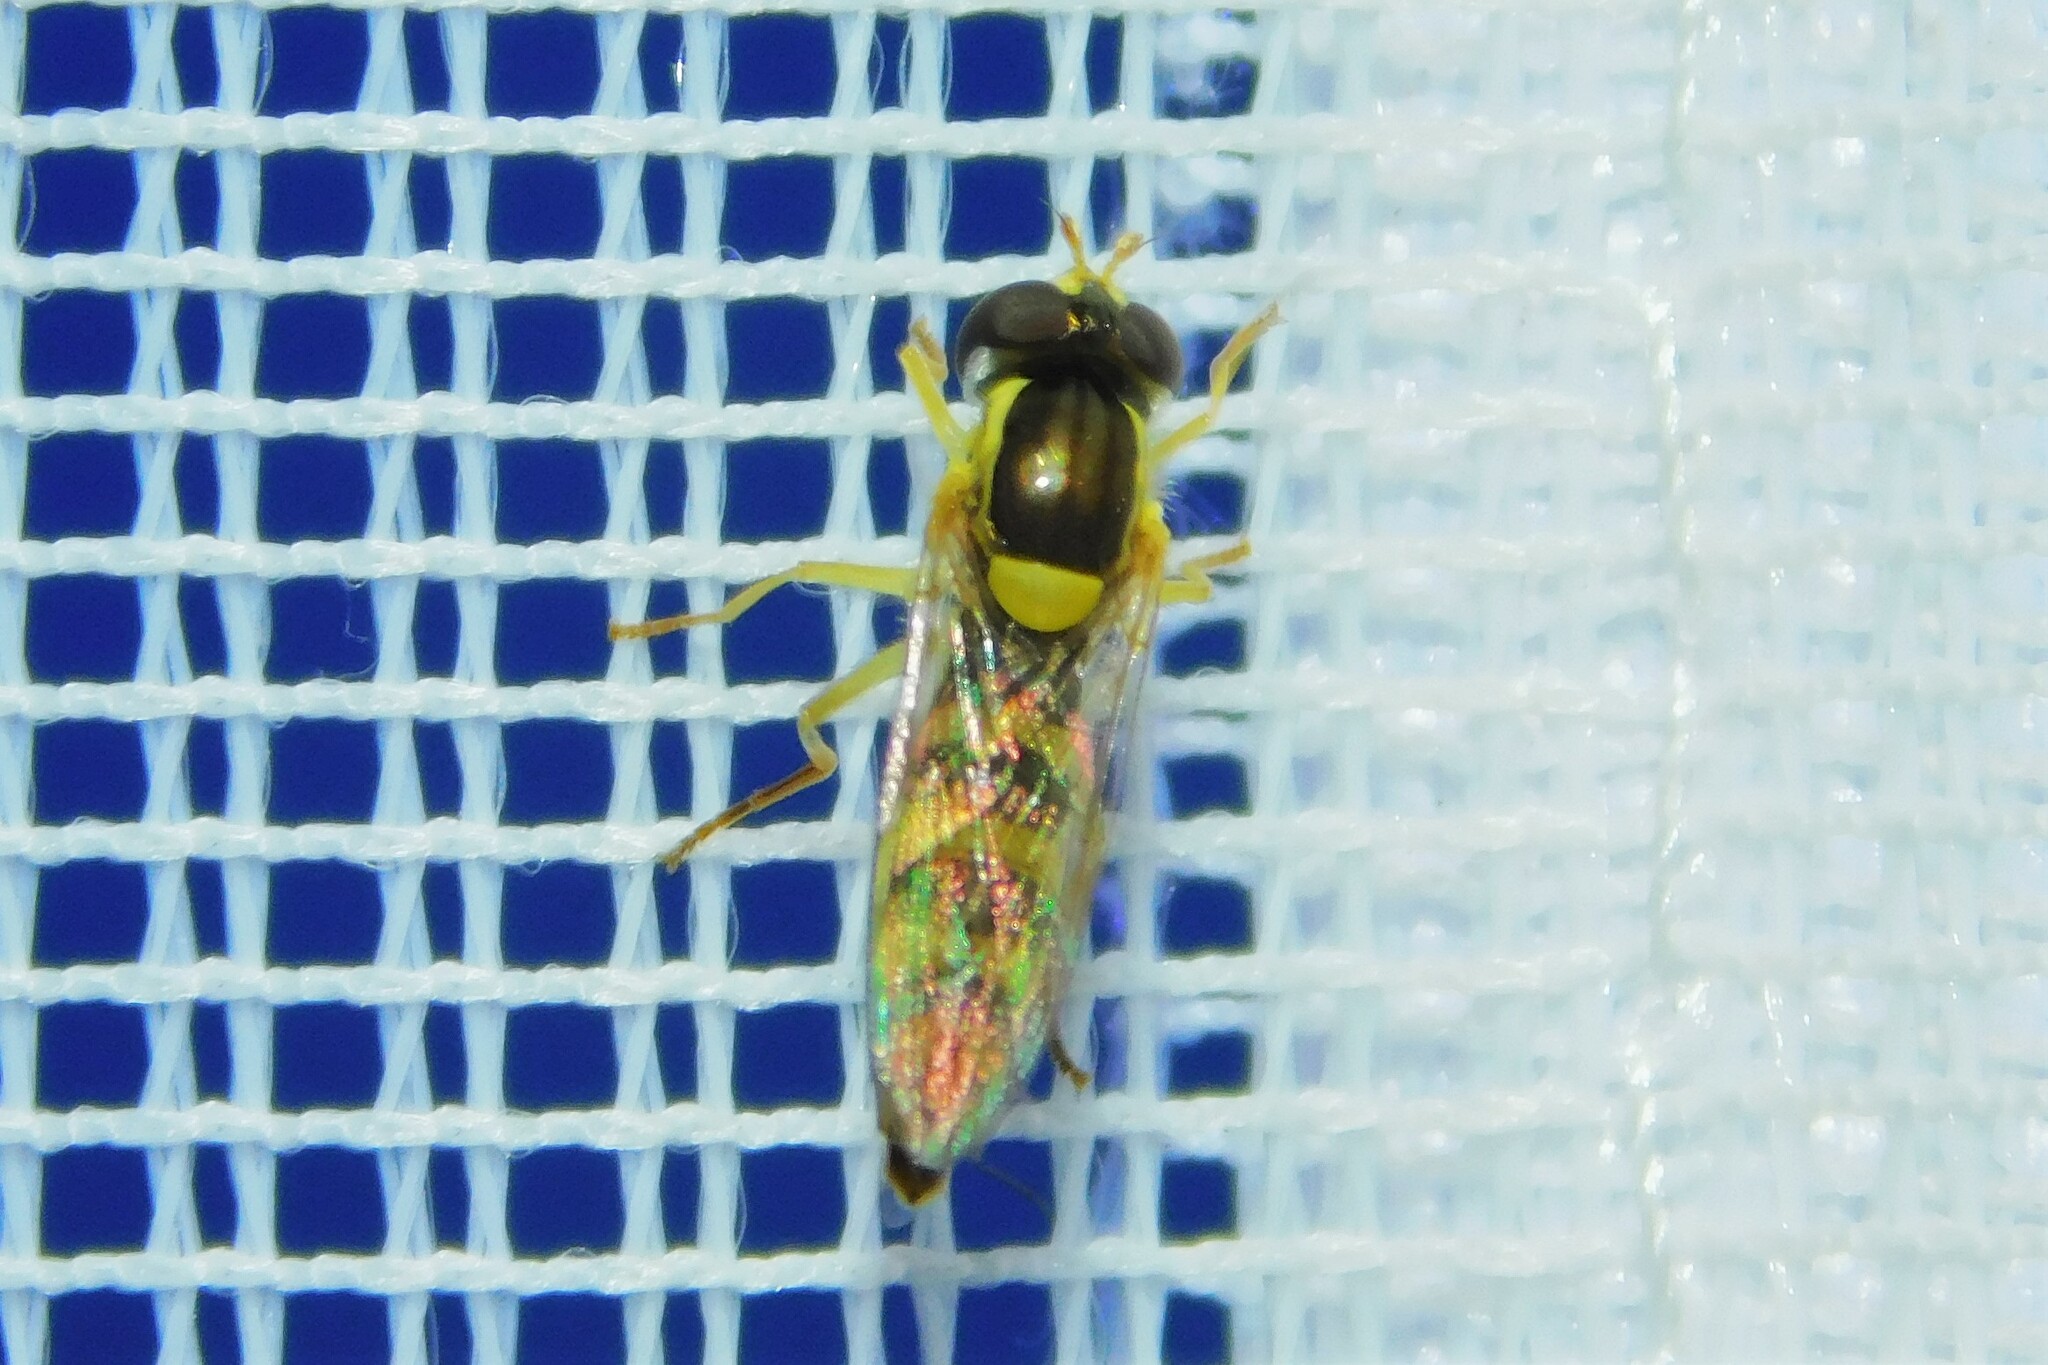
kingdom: Animalia
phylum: Arthropoda
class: Insecta
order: Diptera
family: Syrphidae
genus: Sphaerophoria
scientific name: Sphaerophoria
